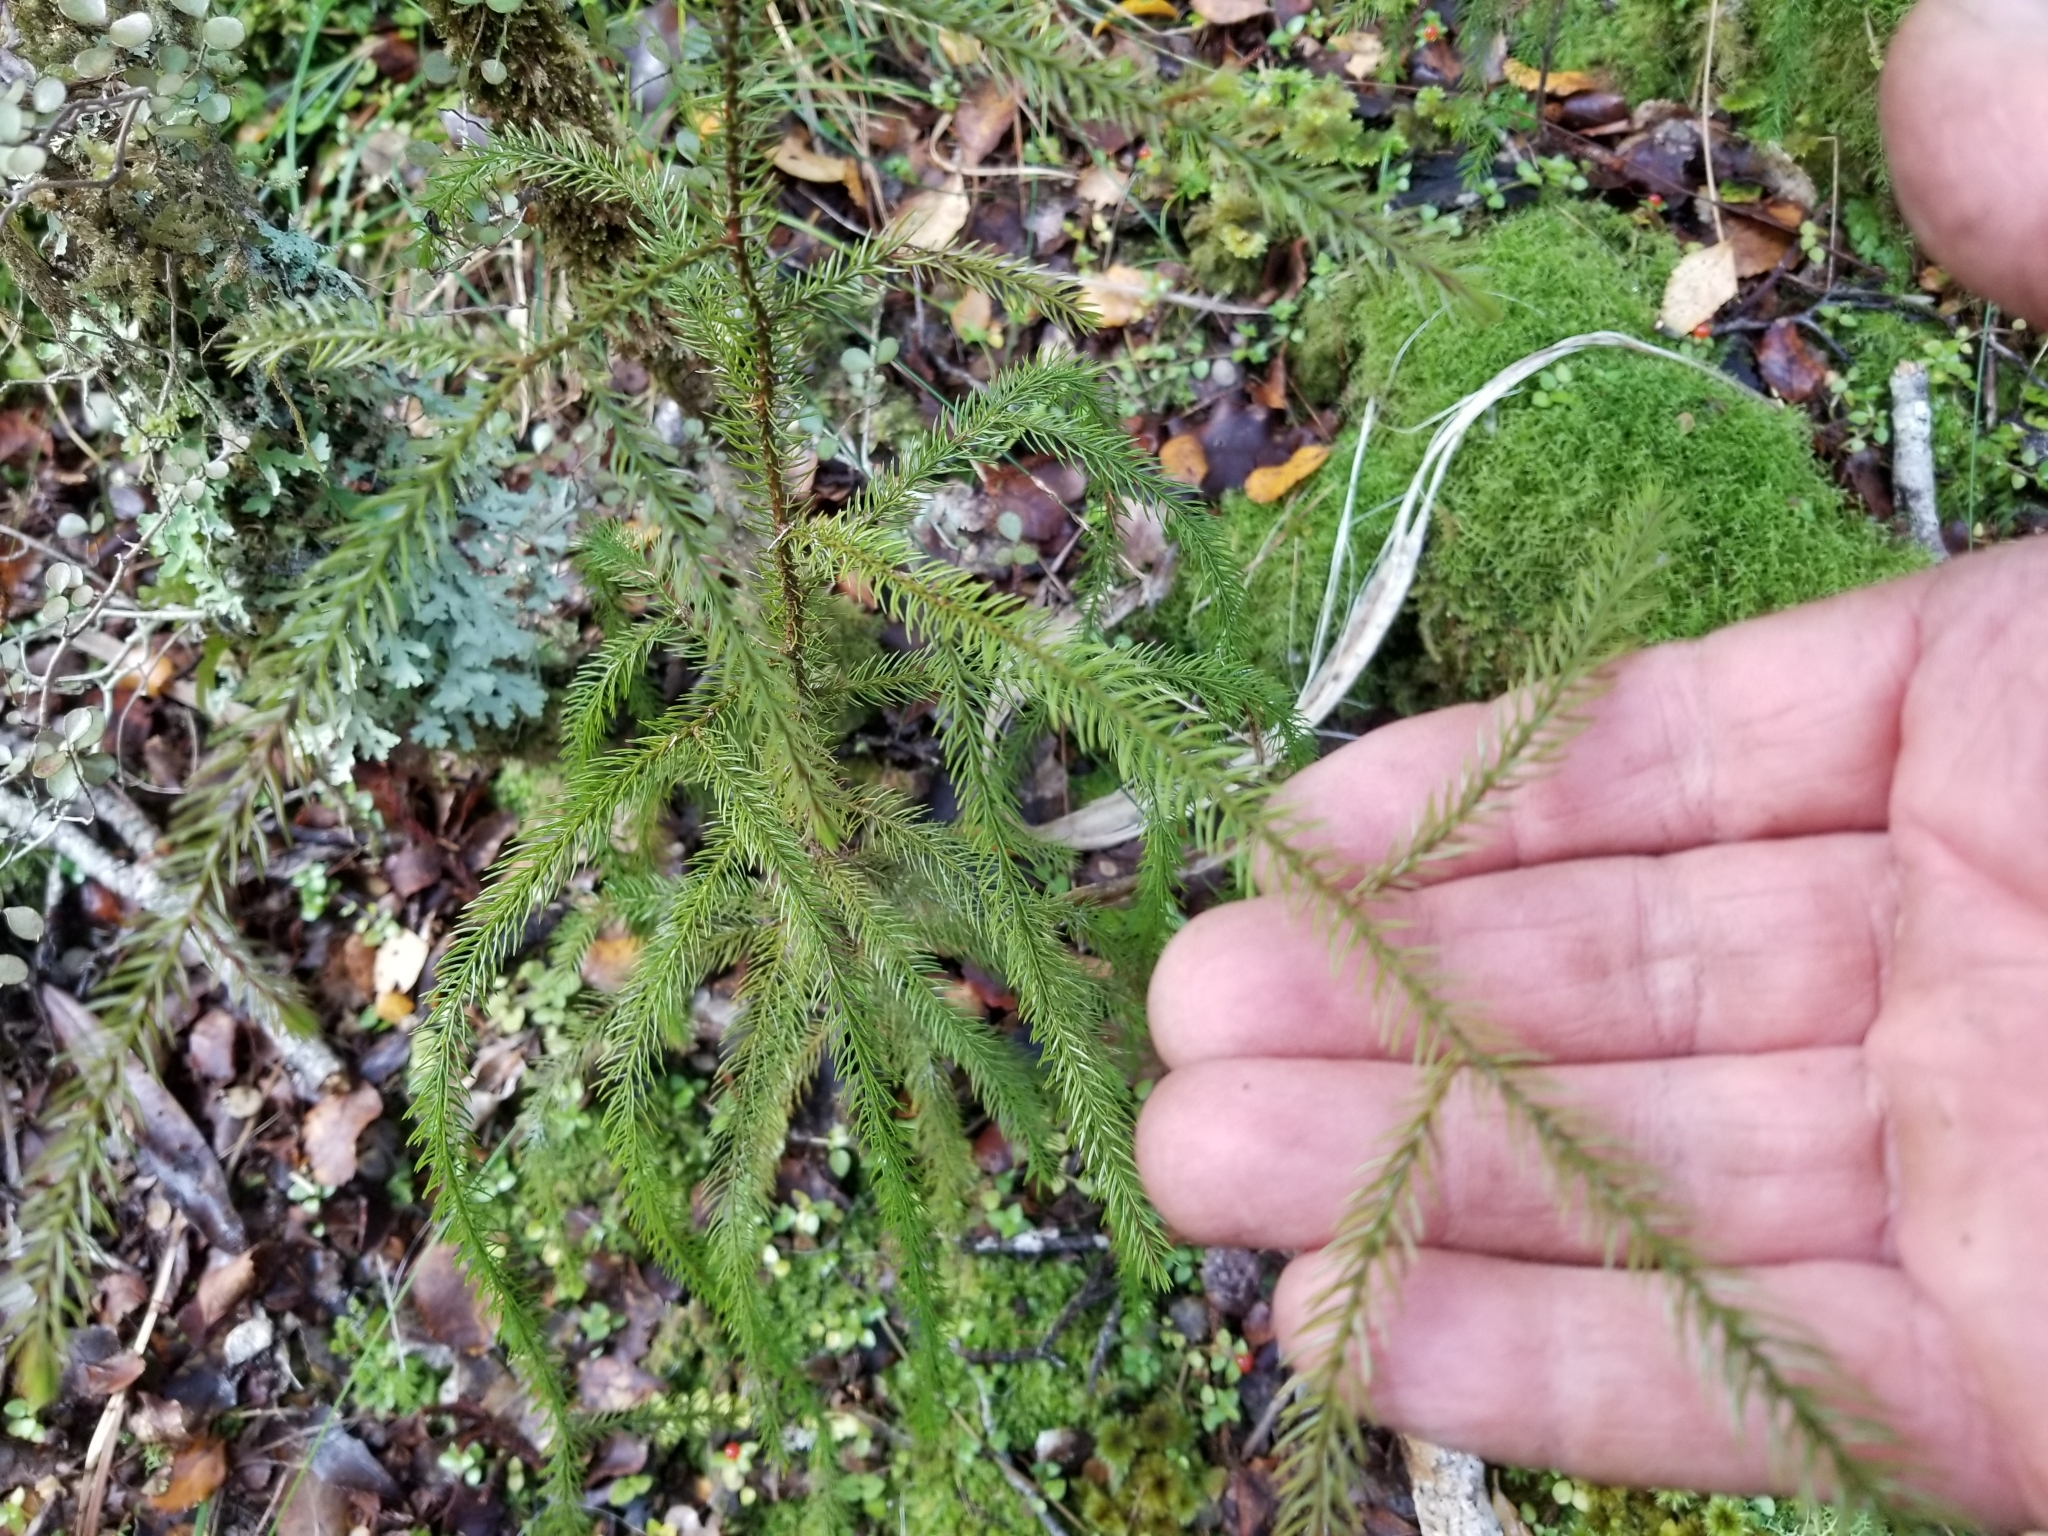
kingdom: Plantae
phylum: Tracheophyta
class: Pinopsida
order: Pinales
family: Podocarpaceae
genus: Dacrydium
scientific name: Dacrydium cupressinum
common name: Red pine
